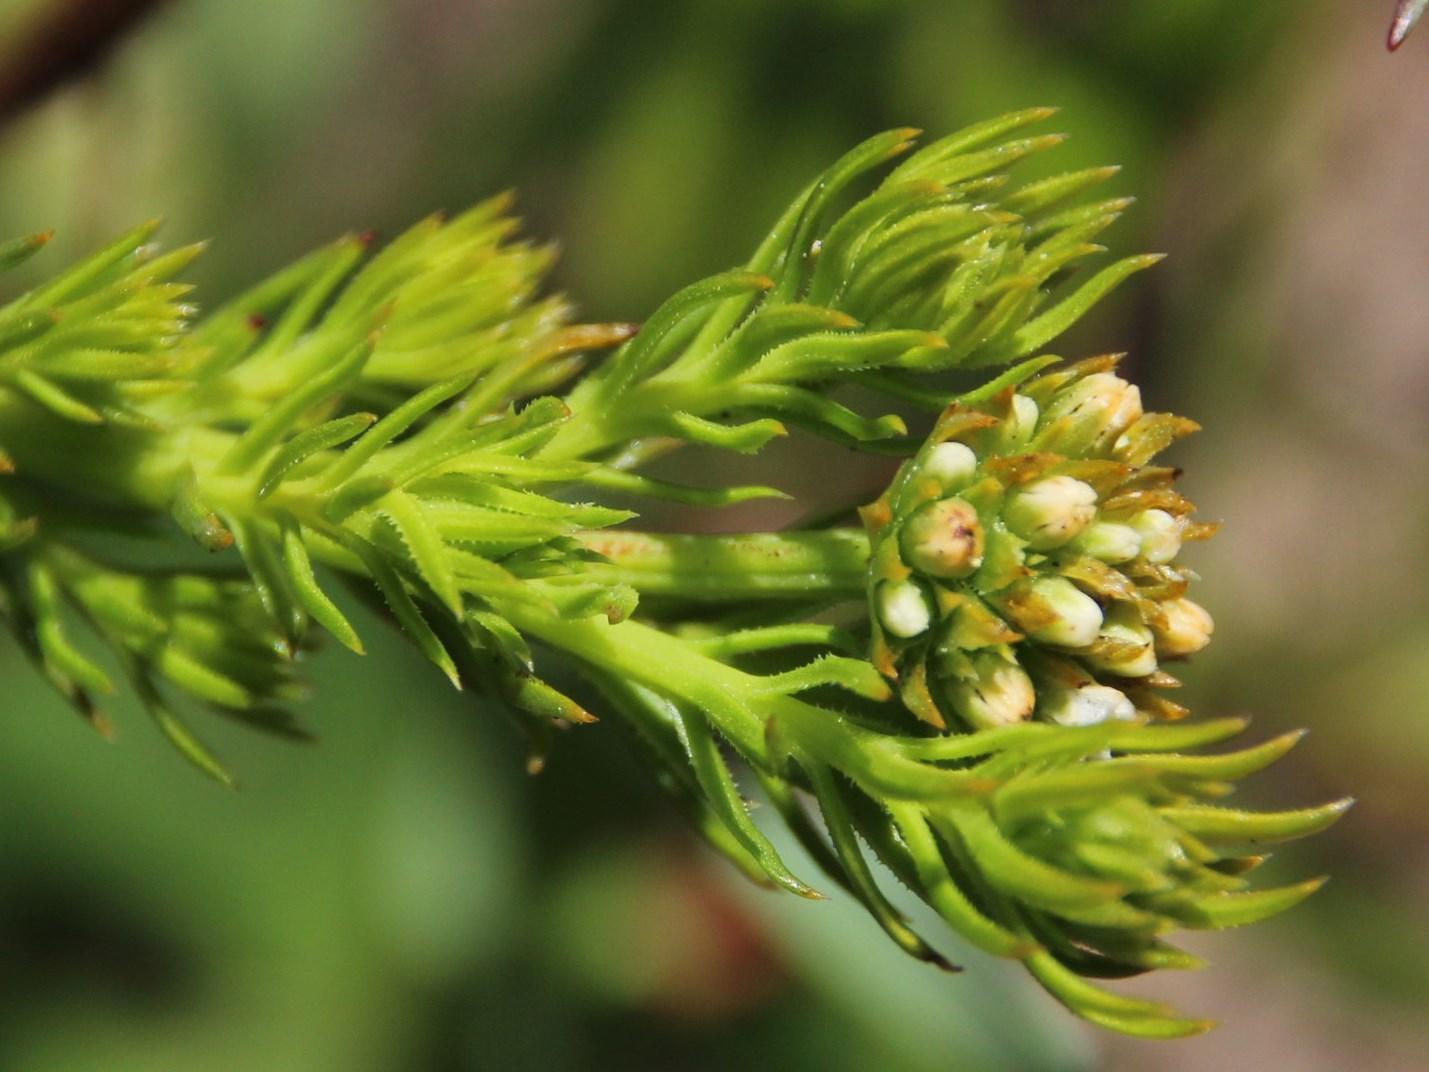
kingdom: Plantae
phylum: Tracheophyta
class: Magnoliopsida
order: Santalales
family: Thesiaceae
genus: Thesium
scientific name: Thesium scabrum
